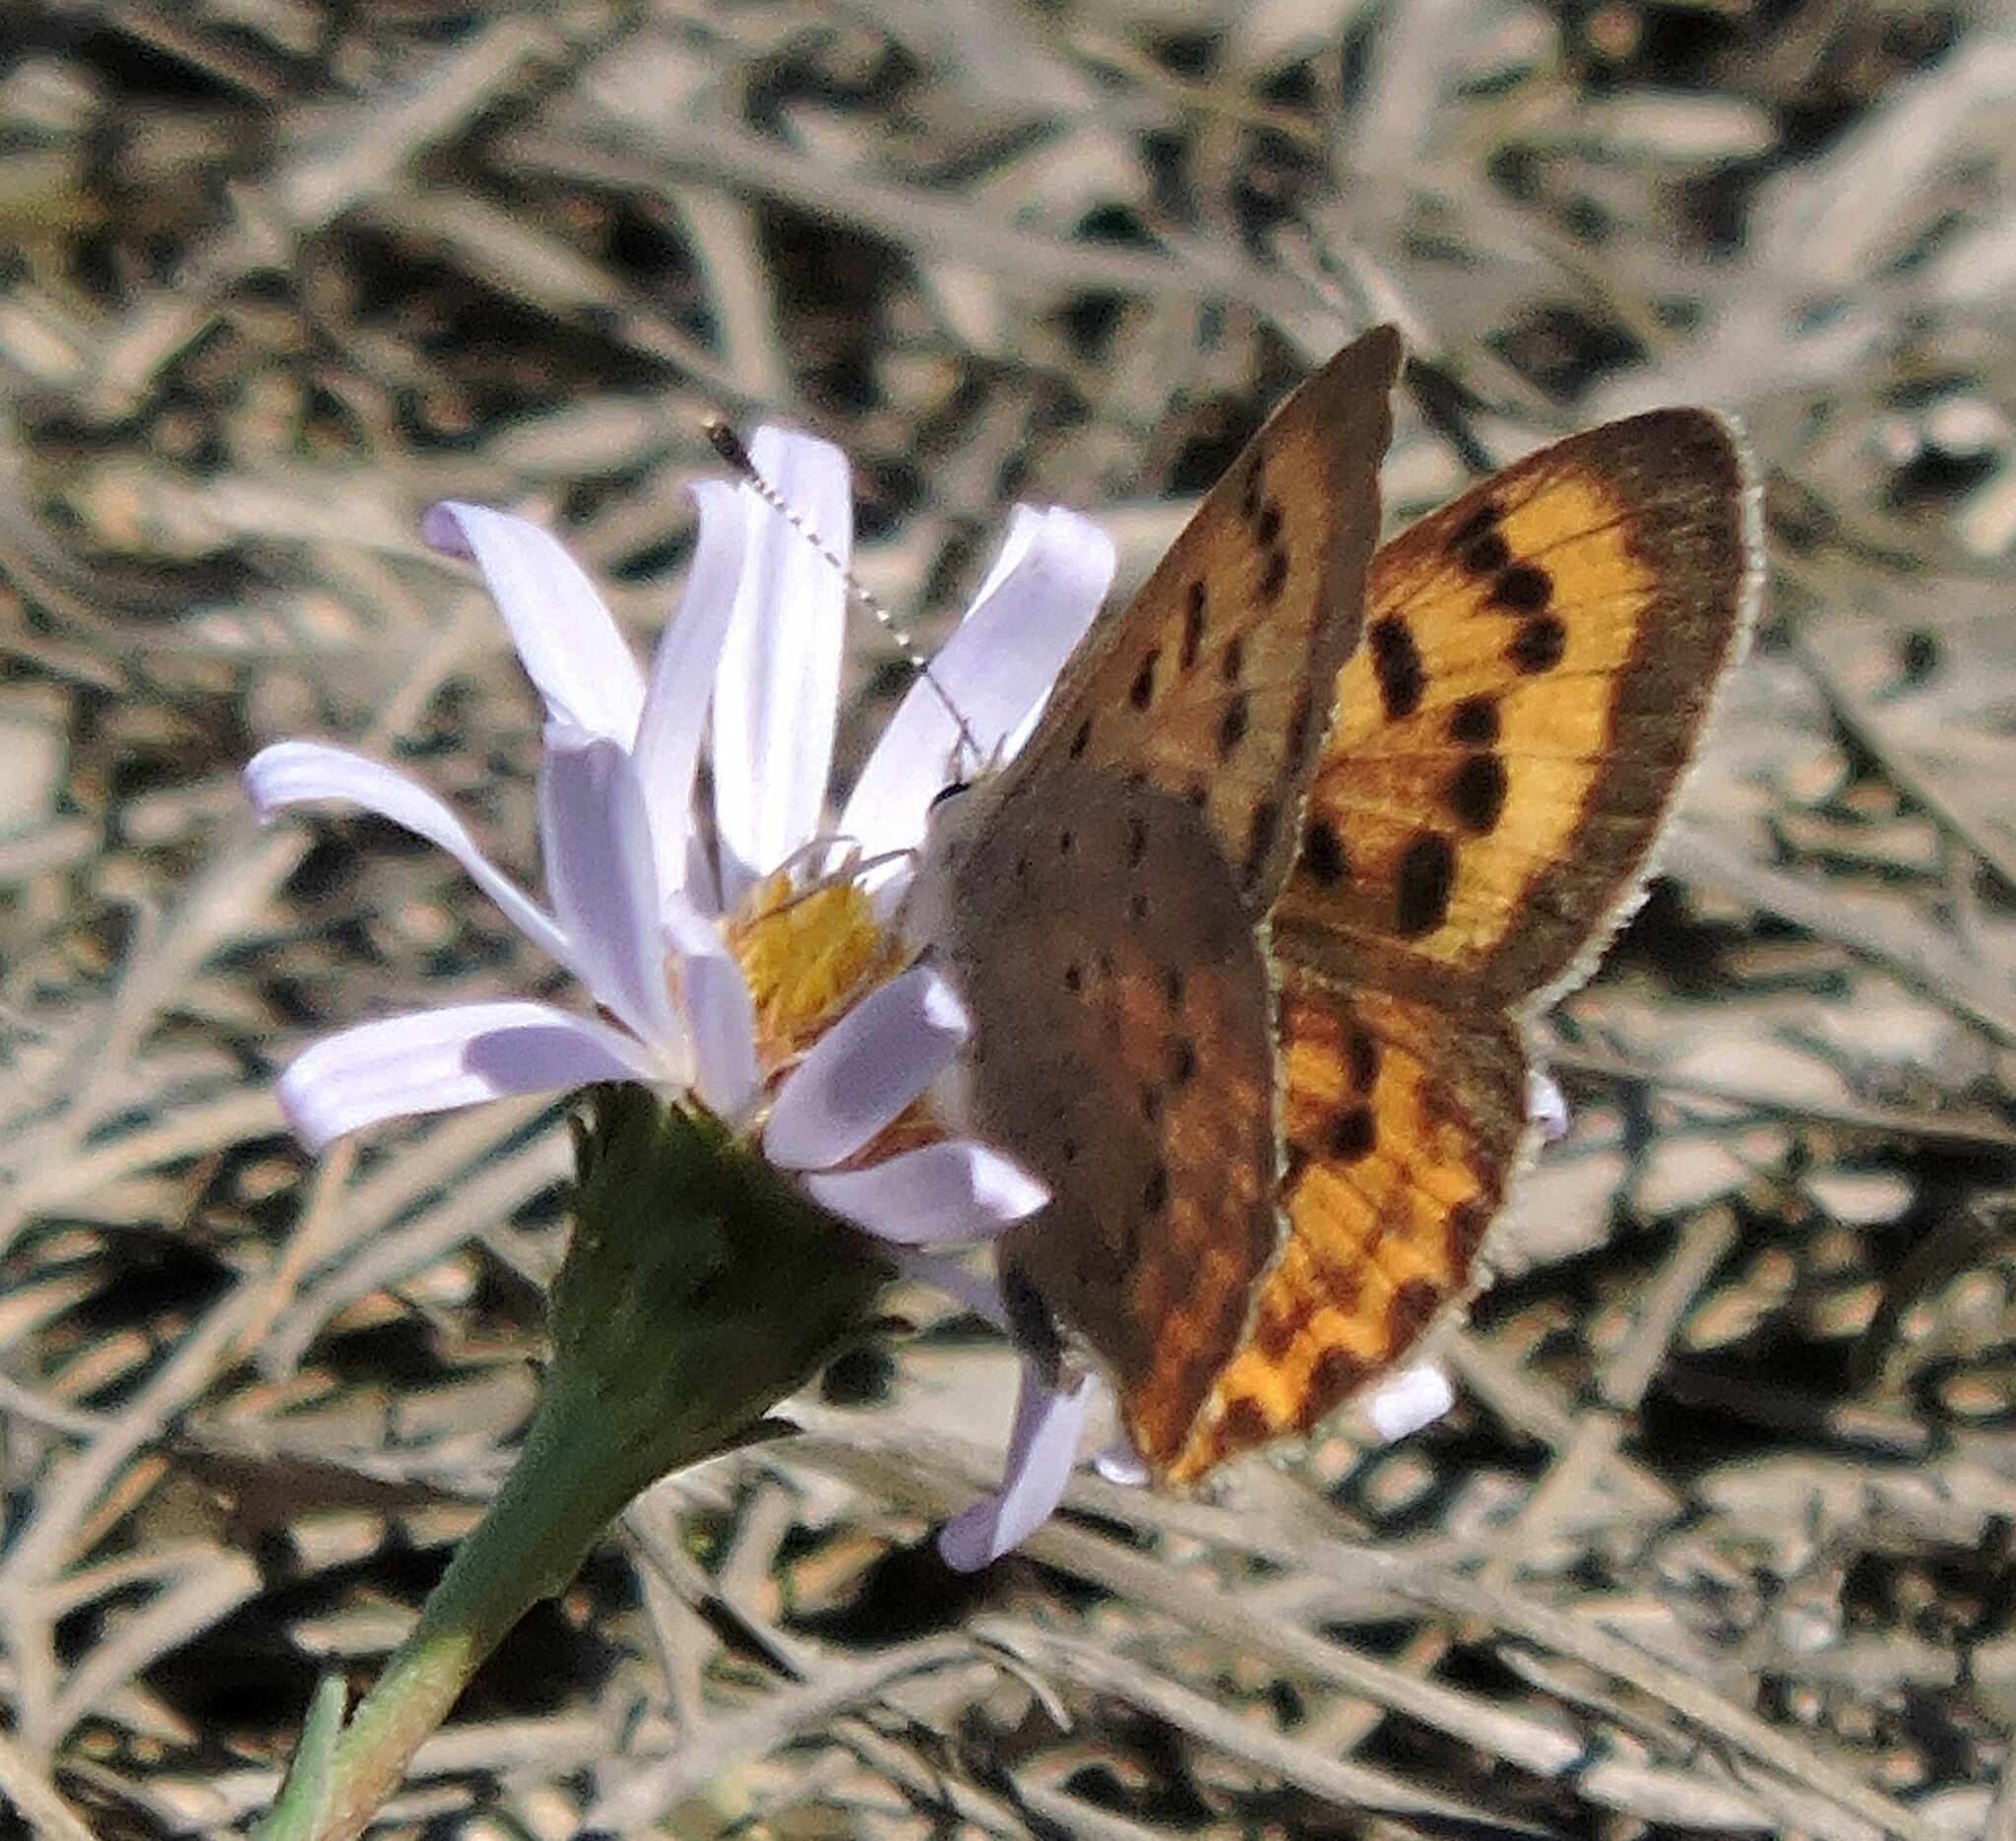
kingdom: Animalia
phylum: Arthropoda
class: Insecta
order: Lepidoptera
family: Lycaenidae
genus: Tharsalea
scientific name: Tharsalea helloides
